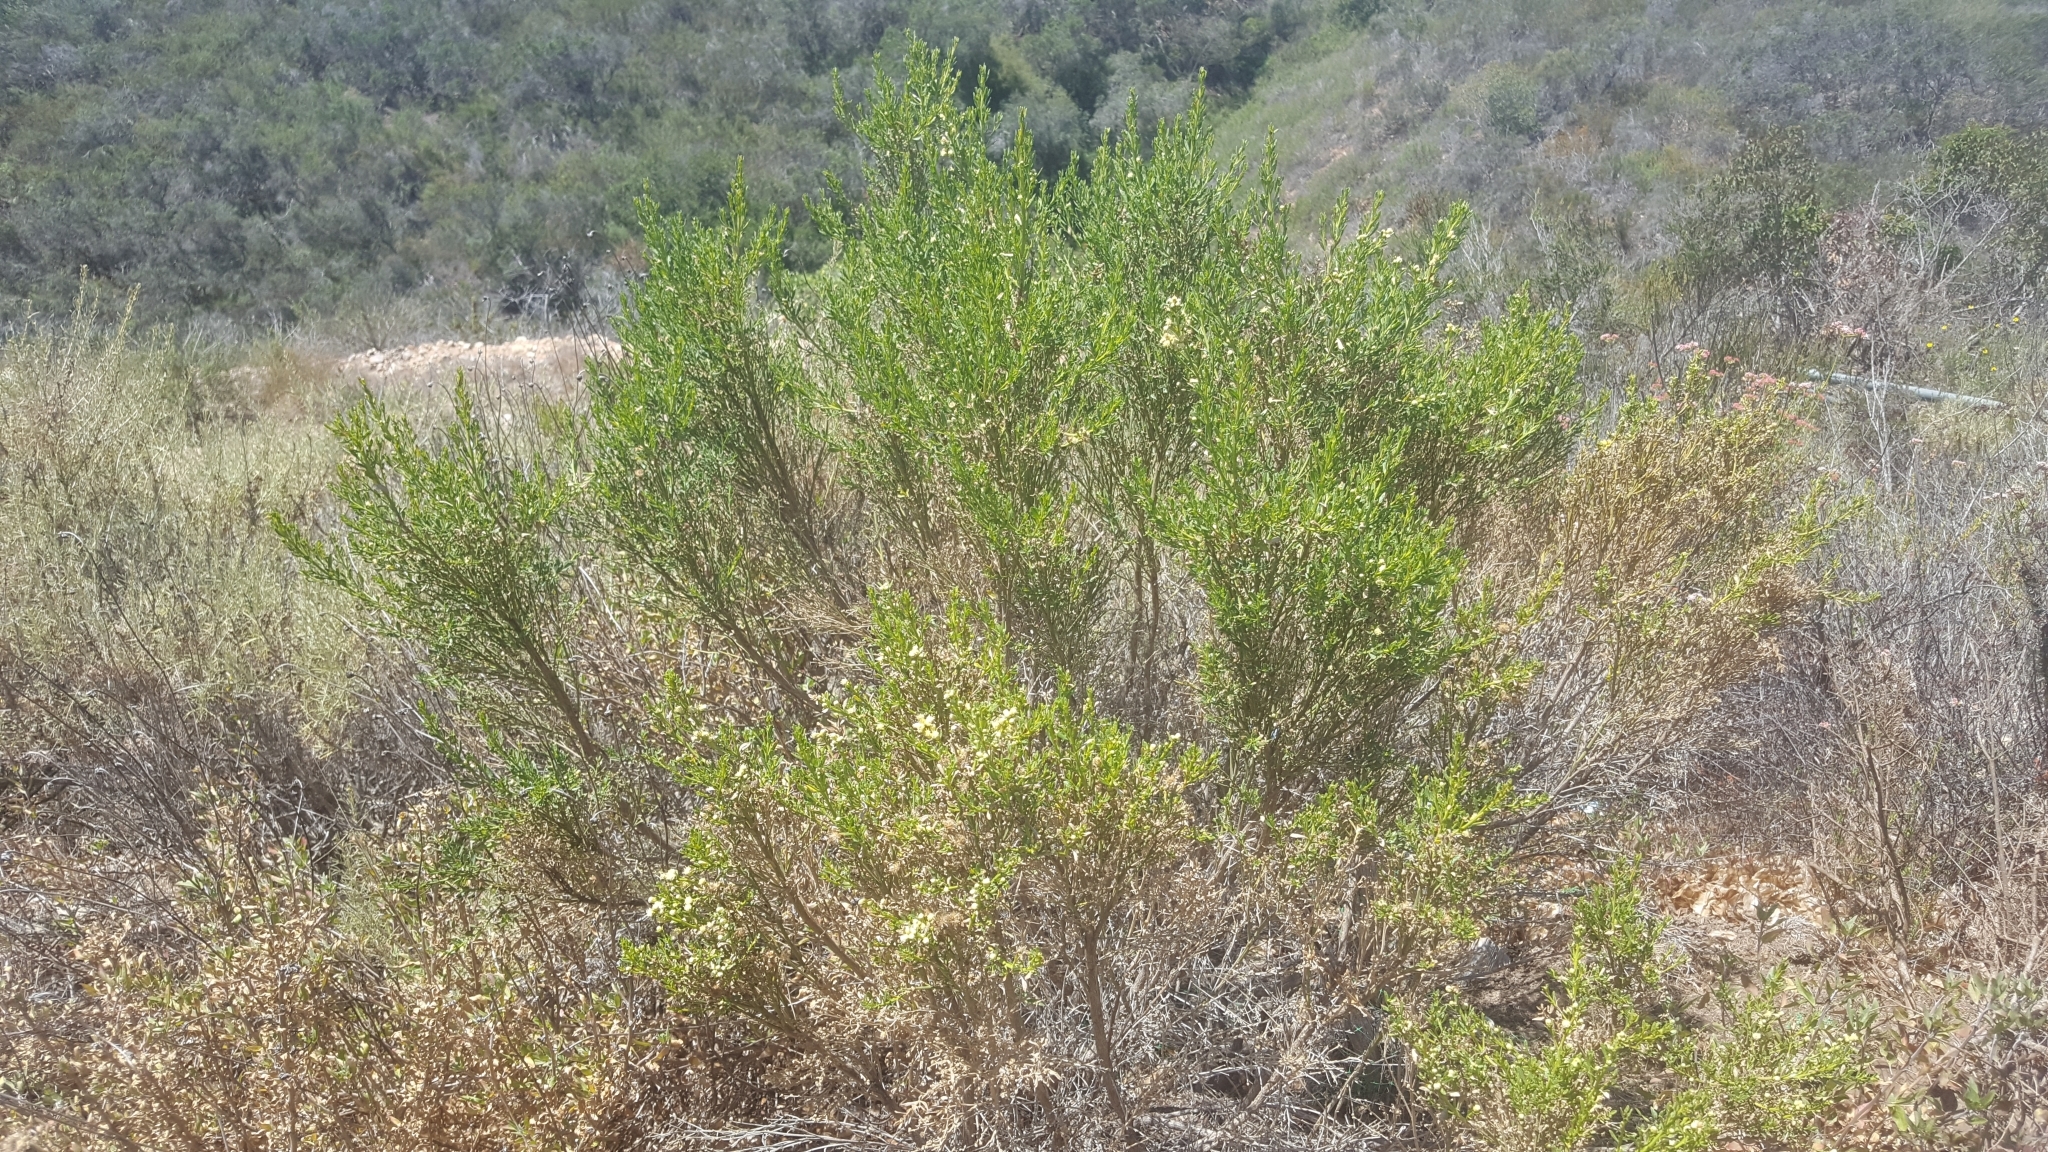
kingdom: Plantae
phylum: Tracheophyta
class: Magnoliopsida
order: Asterales
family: Asteraceae
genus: Baccharis
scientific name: Baccharis pilularis
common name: Coyotebrush
